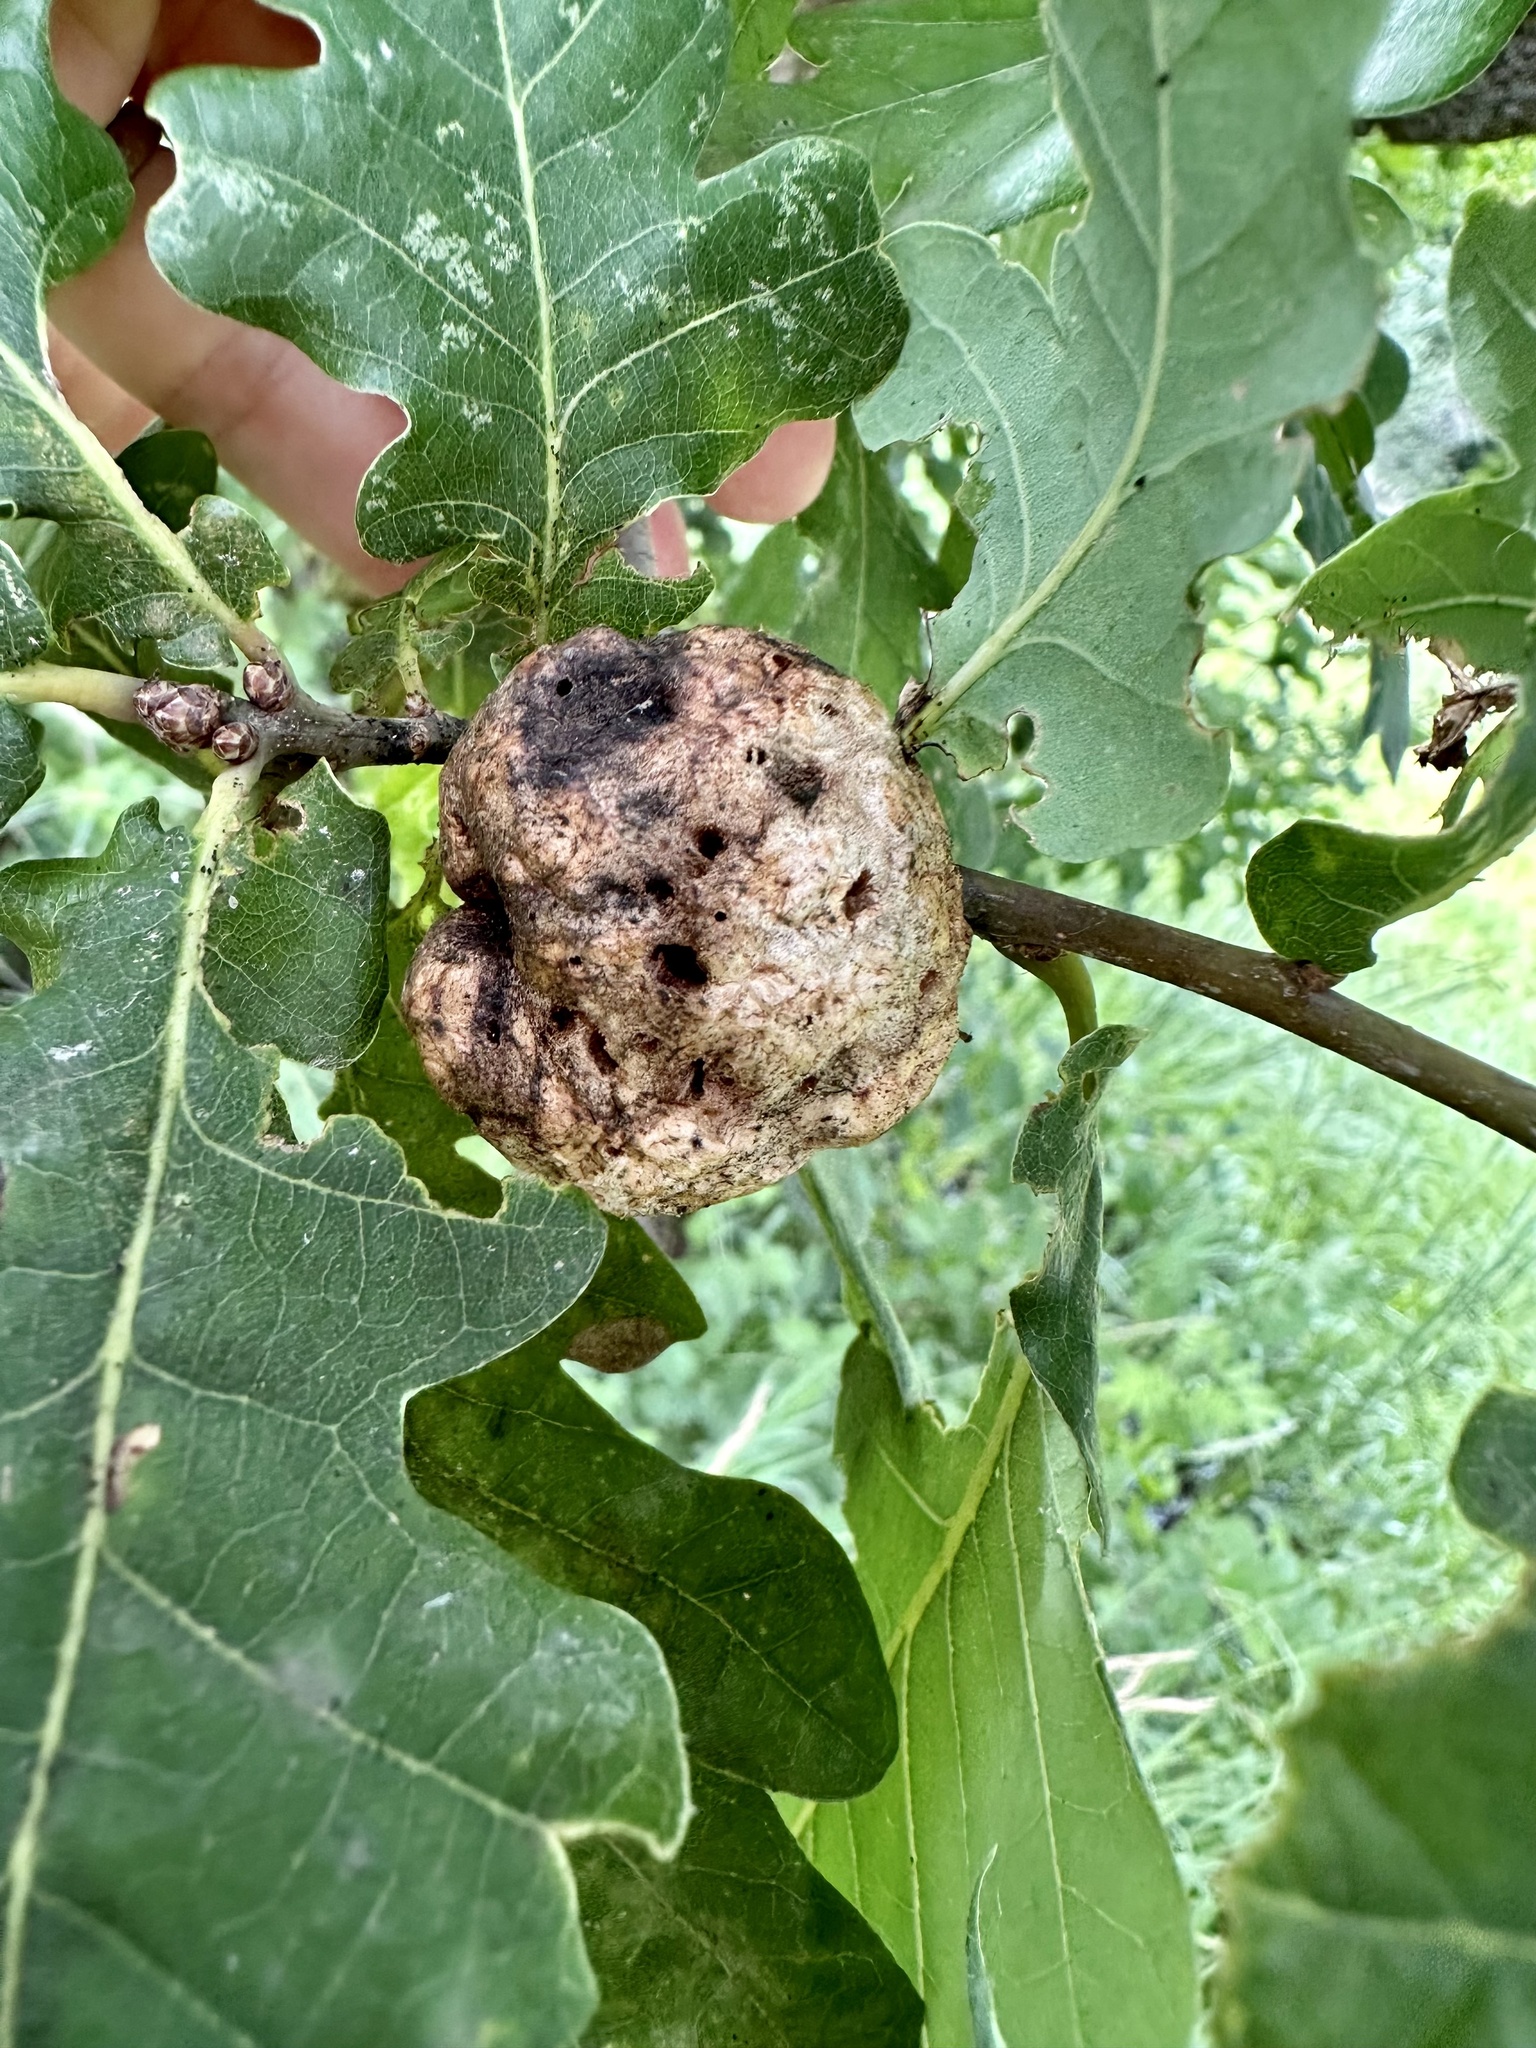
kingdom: Animalia
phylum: Arthropoda
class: Insecta
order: Hymenoptera
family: Cynipidae
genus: Biorhiza
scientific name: Biorhiza pallida
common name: Oak apple
